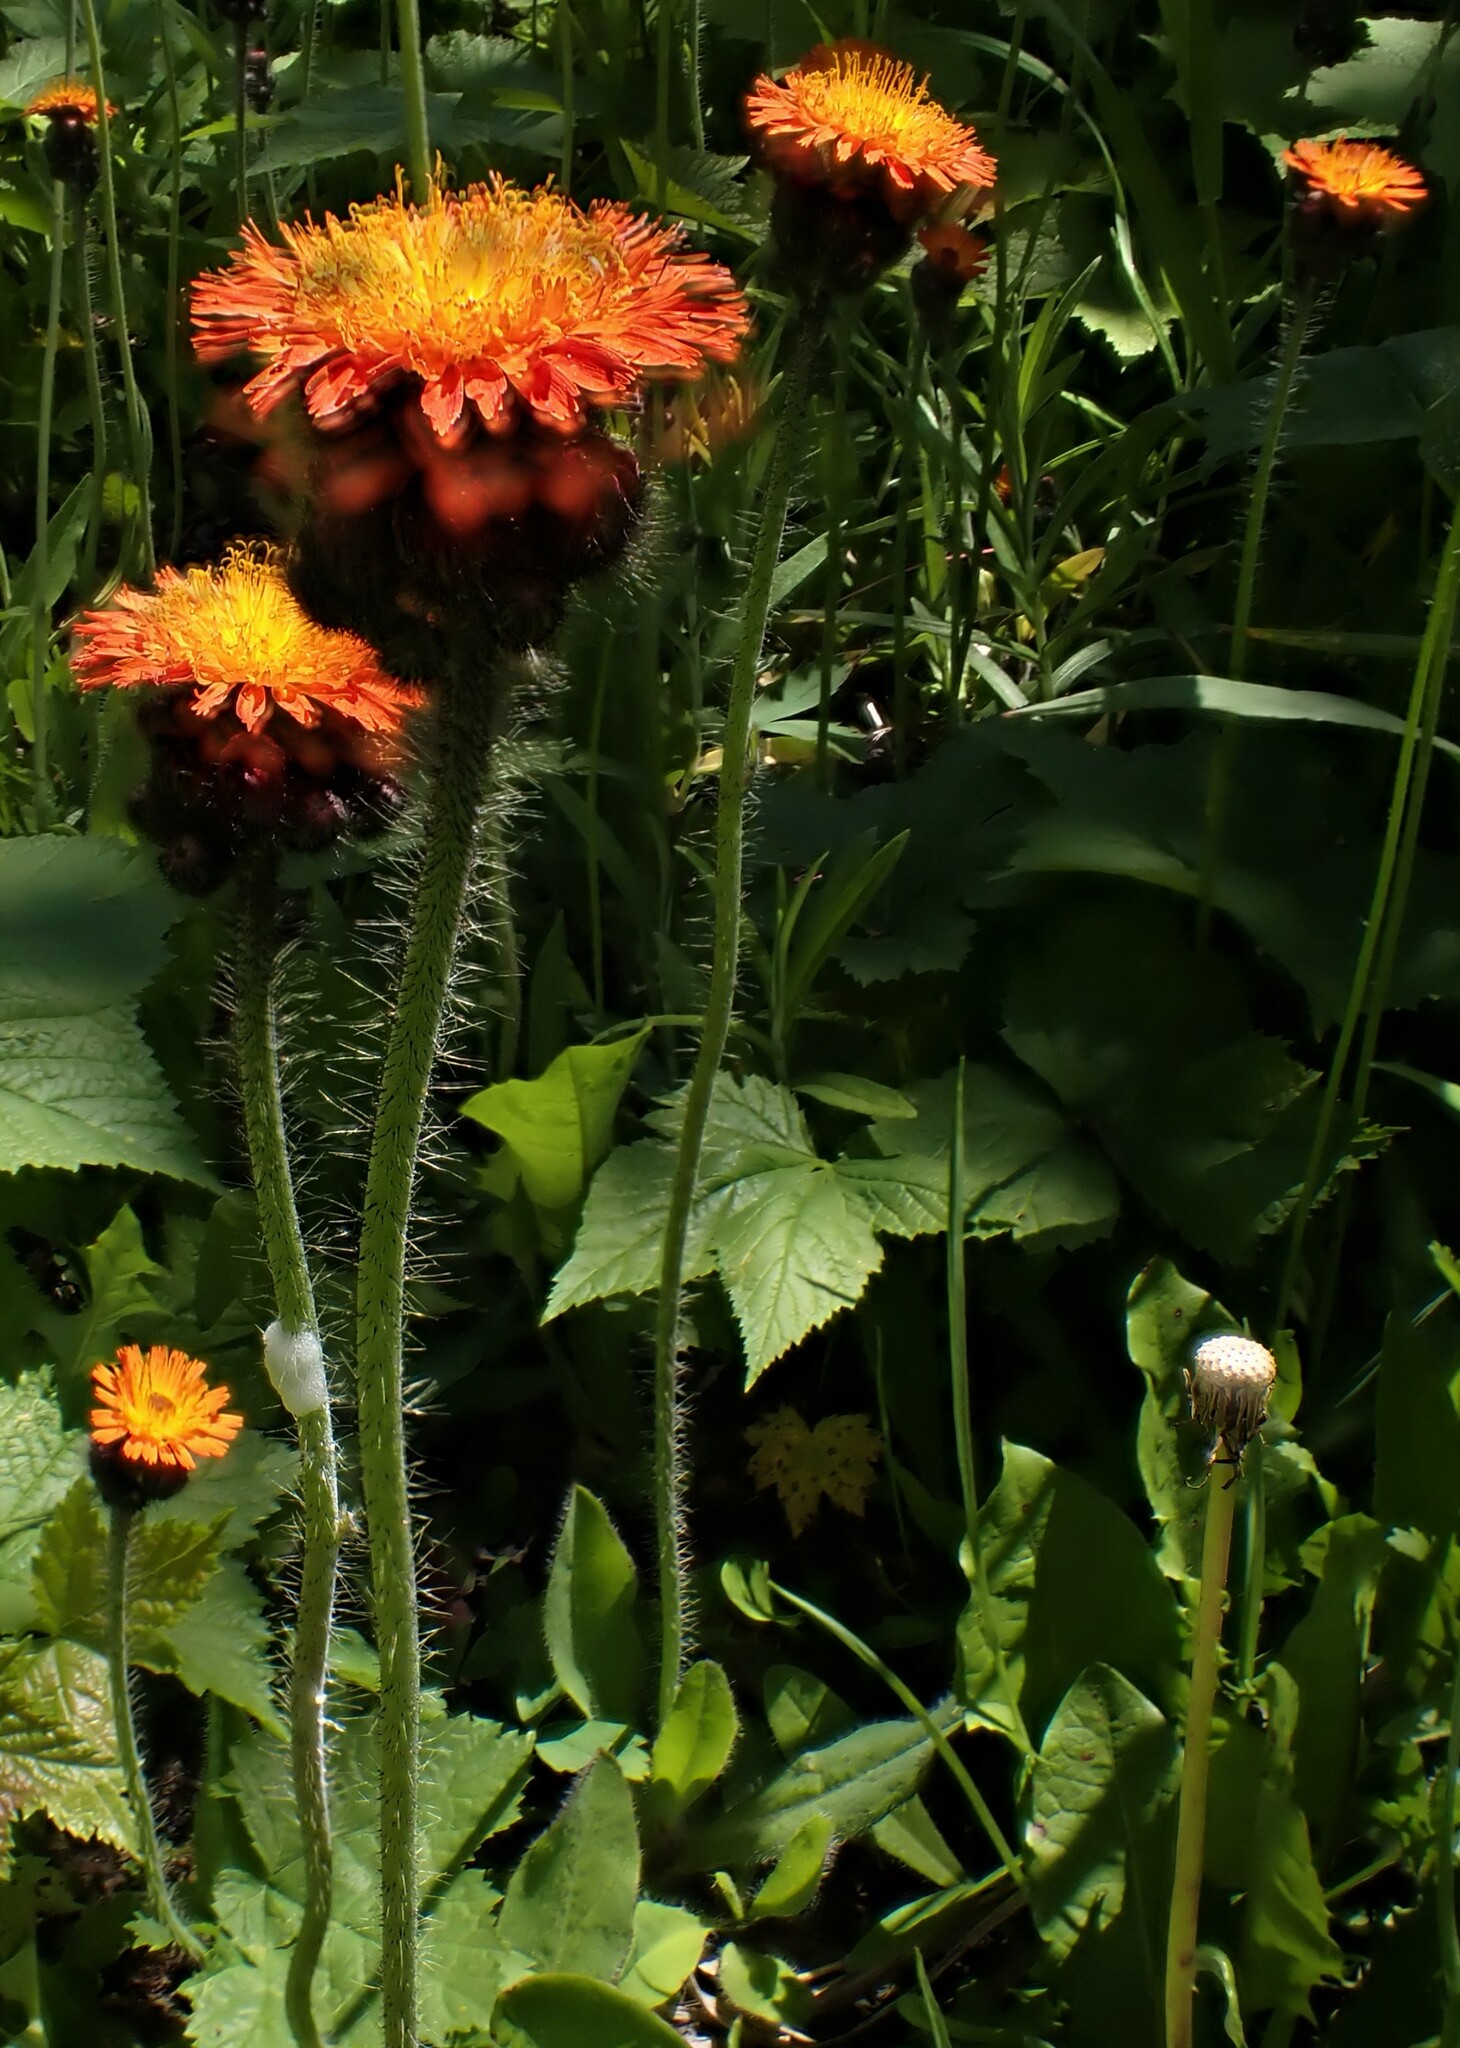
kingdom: Plantae
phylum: Tracheophyta
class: Magnoliopsida
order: Asterales
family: Asteraceae
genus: Pilosella
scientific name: Pilosella aurantiaca
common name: Fox-and-cubs
